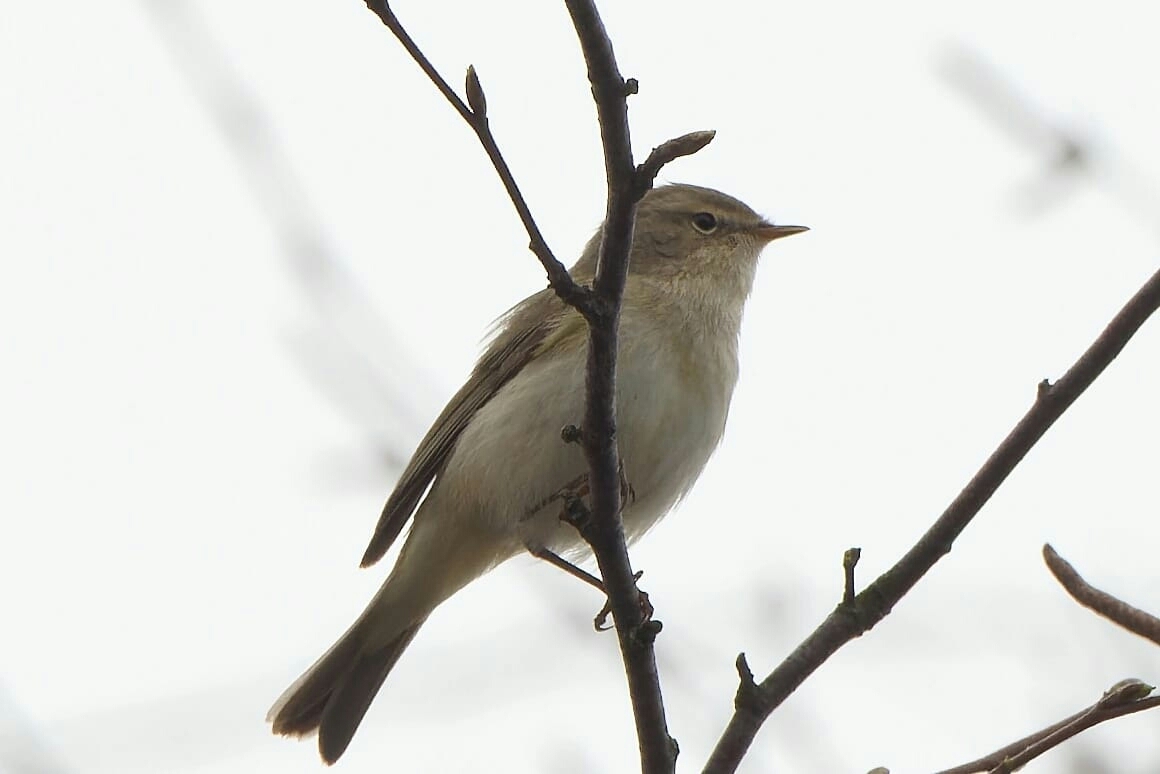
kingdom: Animalia
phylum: Chordata
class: Aves
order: Passeriformes
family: Phylloscopidae
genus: Phylloscopus
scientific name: Phylloscopus collybita
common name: Common chiffchaff
